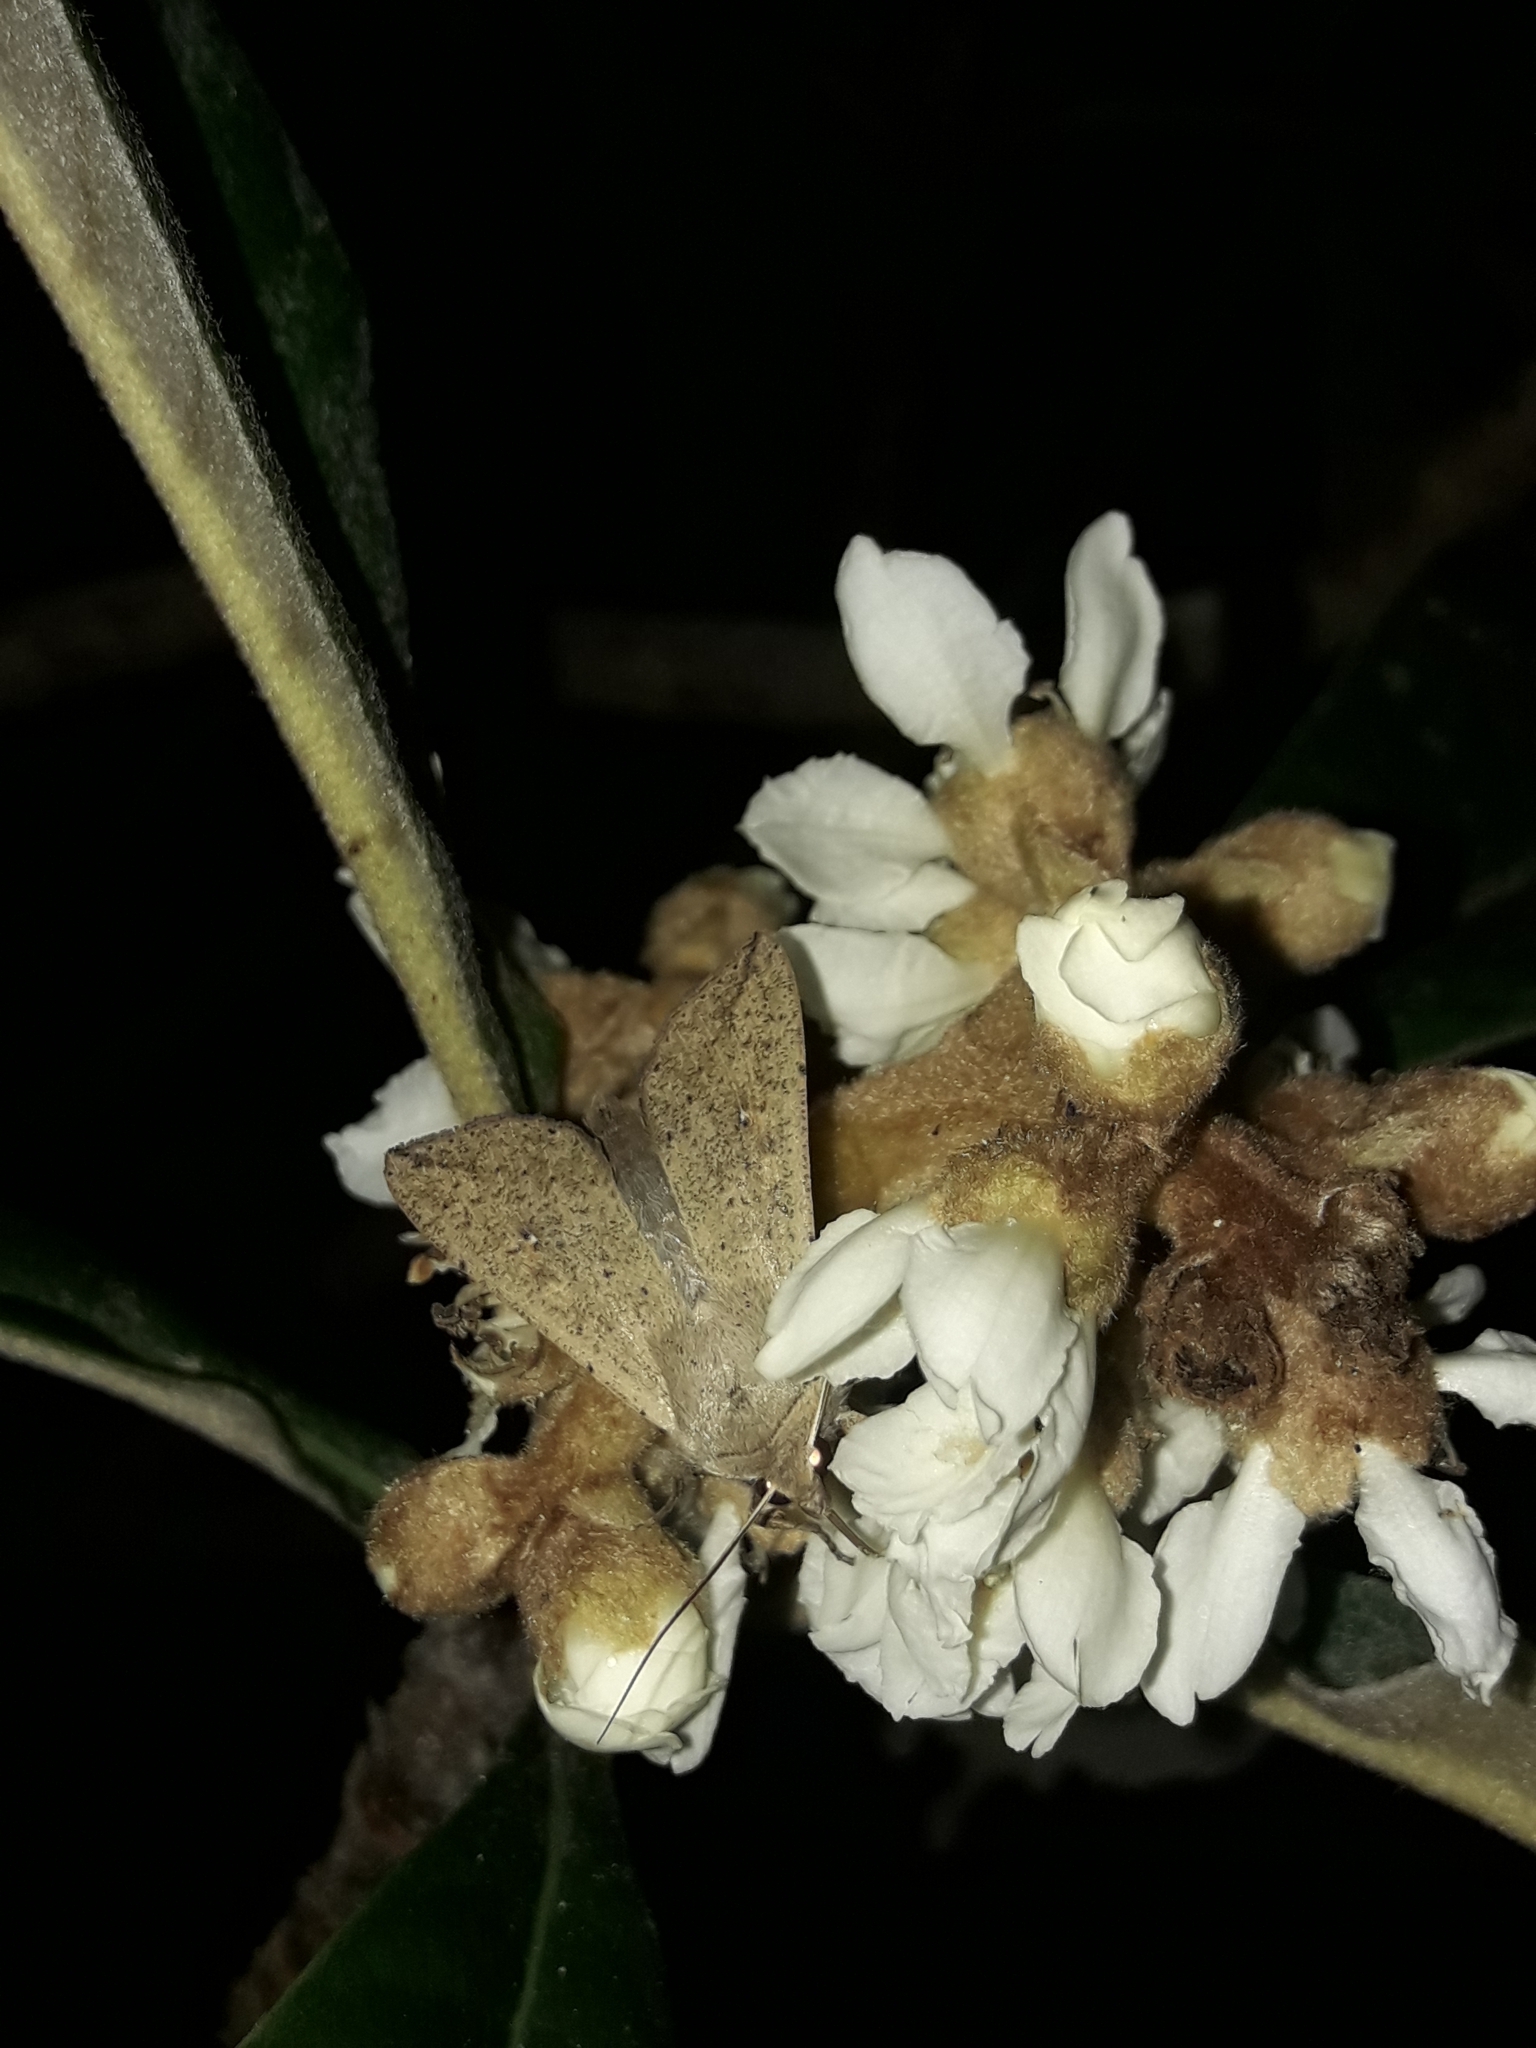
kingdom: Animalia
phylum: Arthropoda
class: Insecta
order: Lepidoptera
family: Noctuidae
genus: Mythimna
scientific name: Mythimna separata
